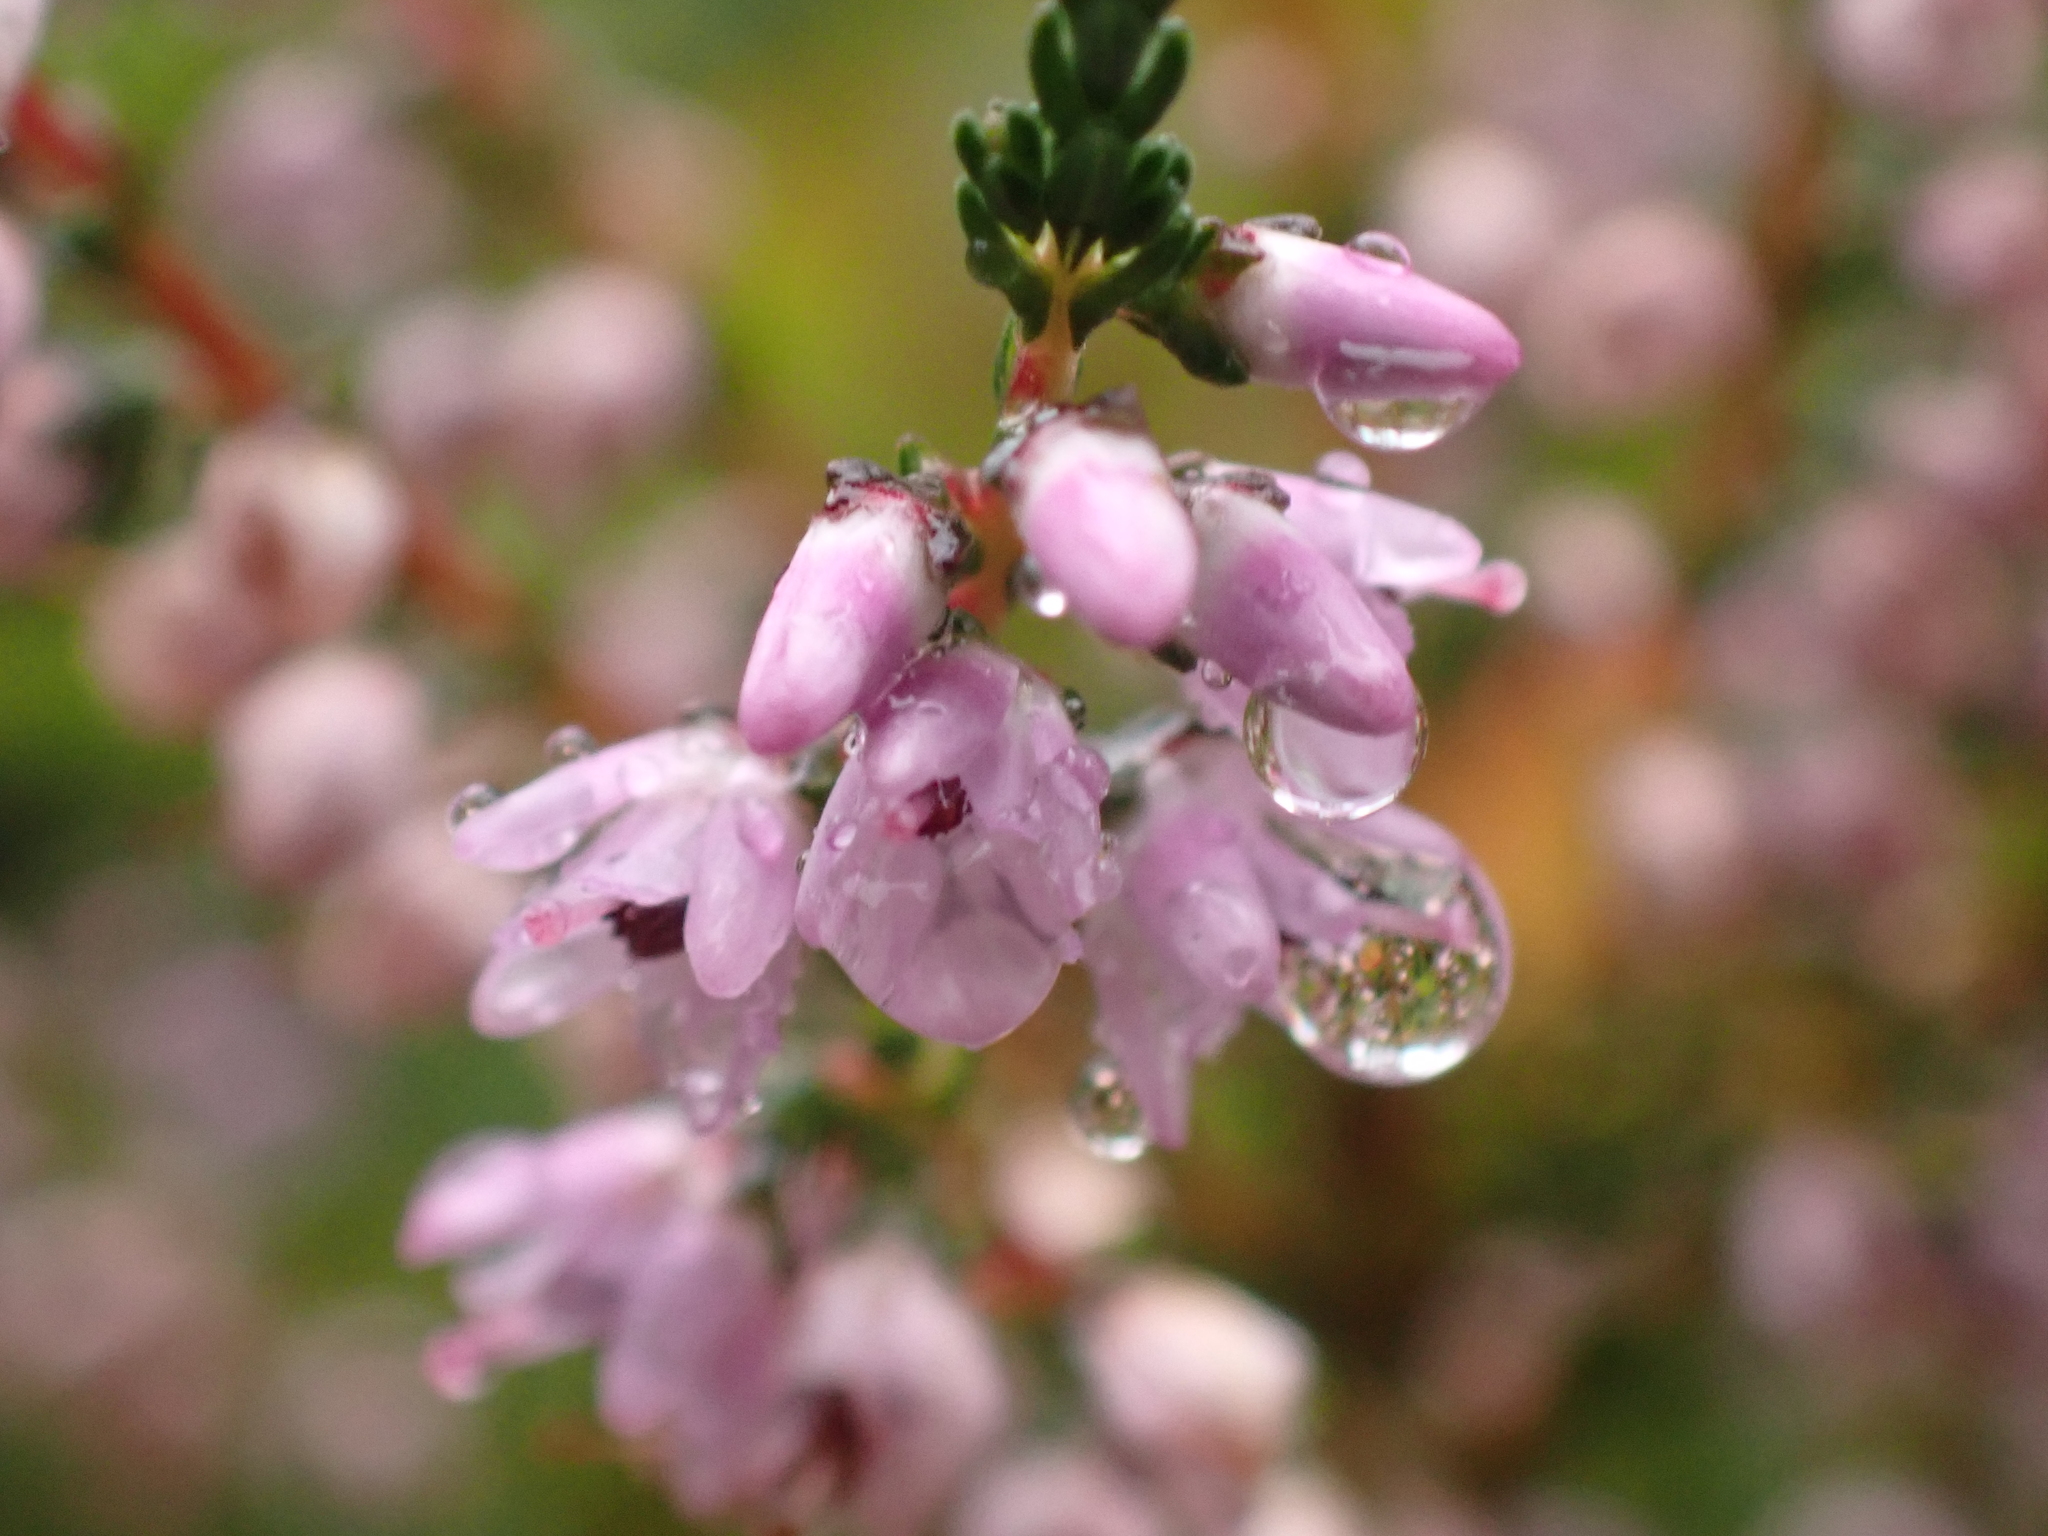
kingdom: Plantae
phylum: Tracheophyta
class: Magnoliopsida
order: Ericales
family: Ericaceae
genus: Calluna
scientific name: Calluna vulgaris
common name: Heather
